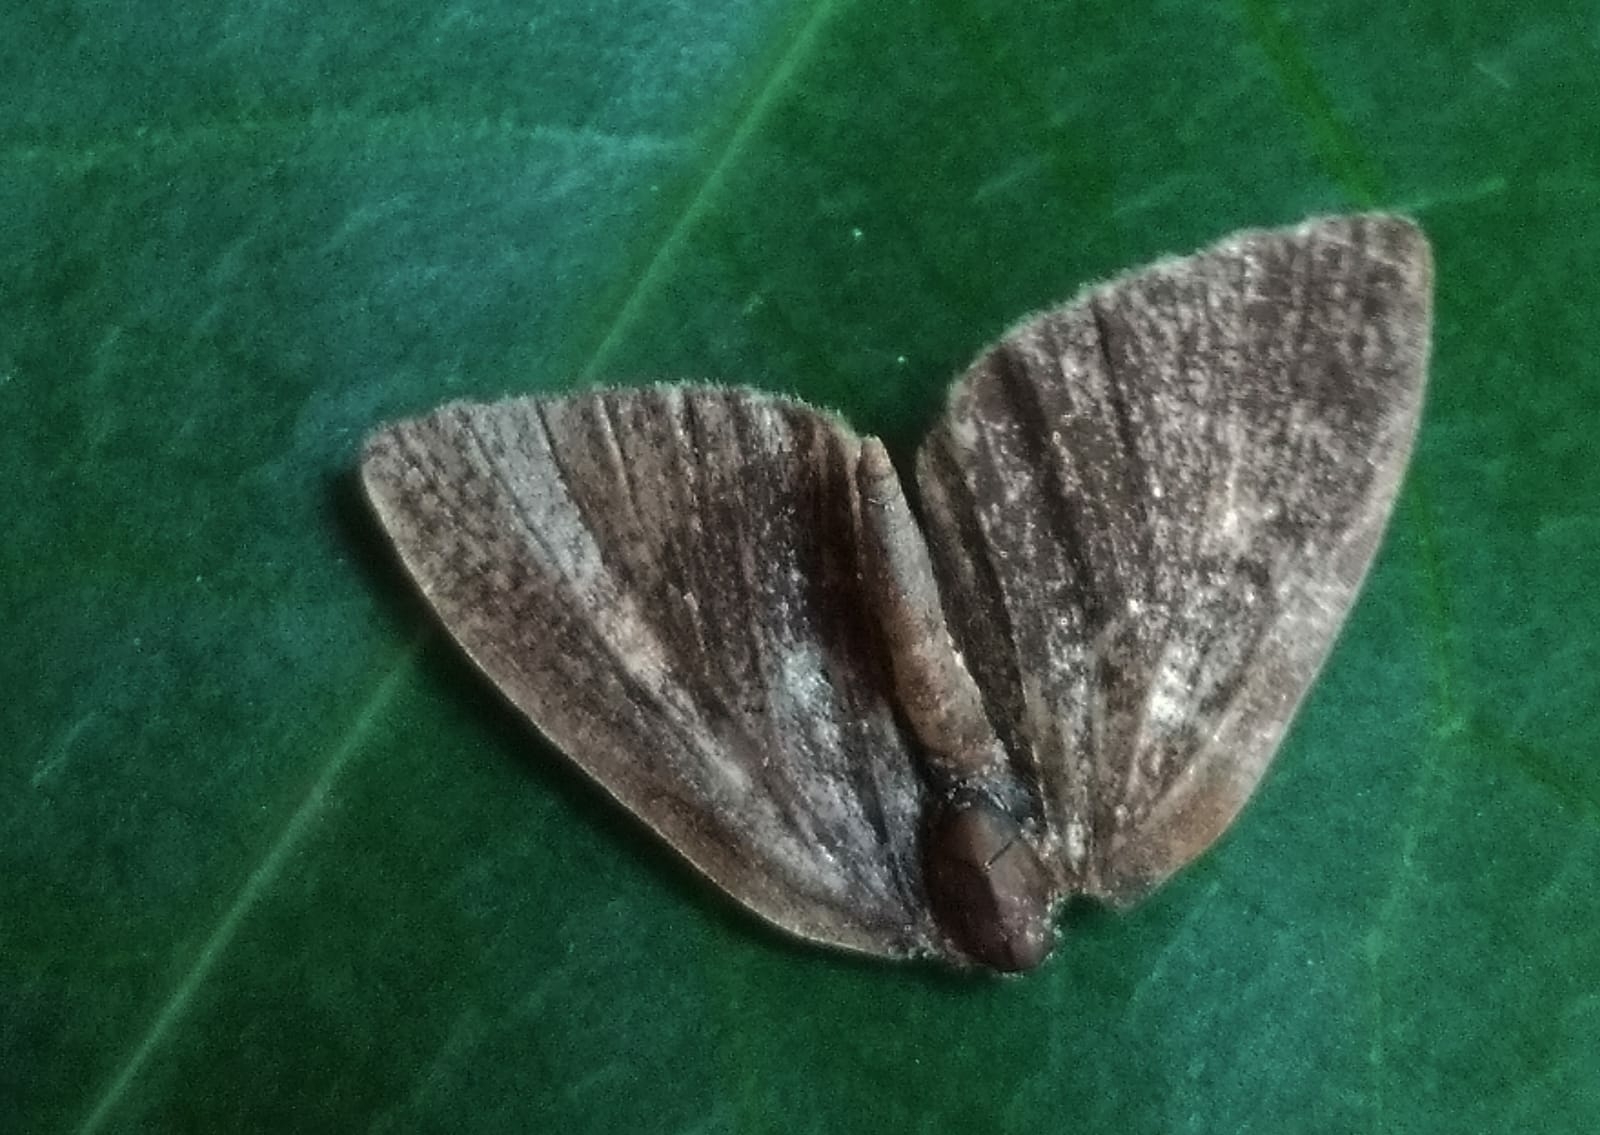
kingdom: Animalia
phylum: Arthropoda
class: Insecta
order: Lepidoptera
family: Lycaenidae
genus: Spalgis
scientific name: Spalgis epius
